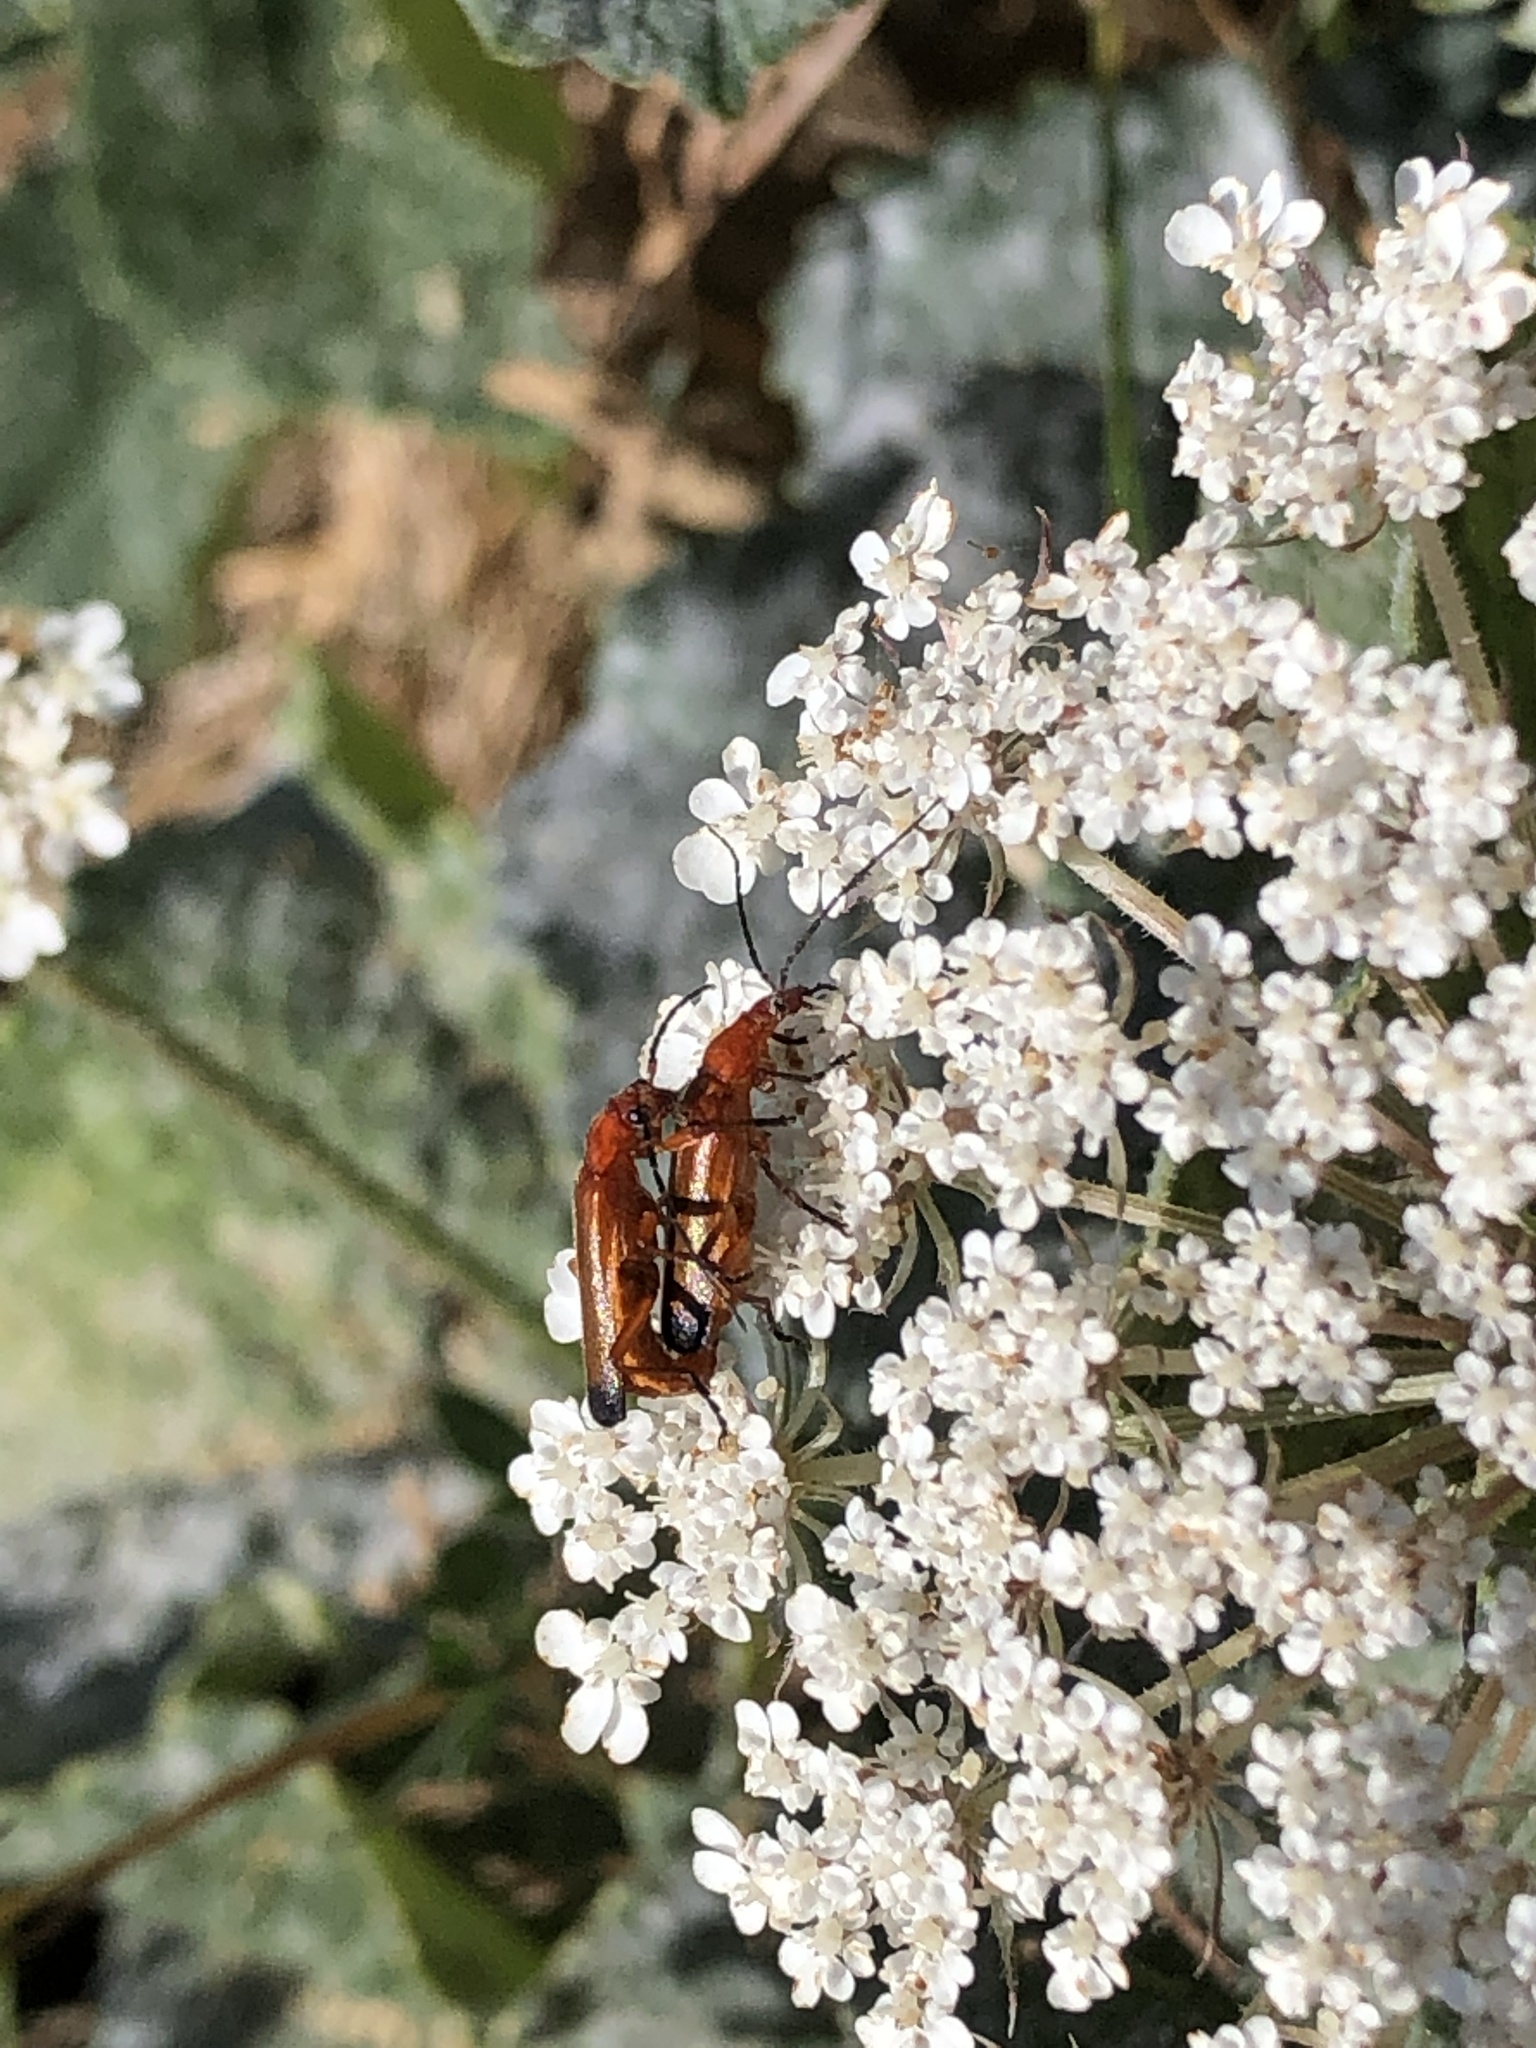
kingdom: Animalia
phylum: Arthropoda
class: Insecta
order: Coleoptera
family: Cantharidae
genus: Rhagonycha
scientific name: Rhagonycha fulva
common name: Common red soldier beetle
